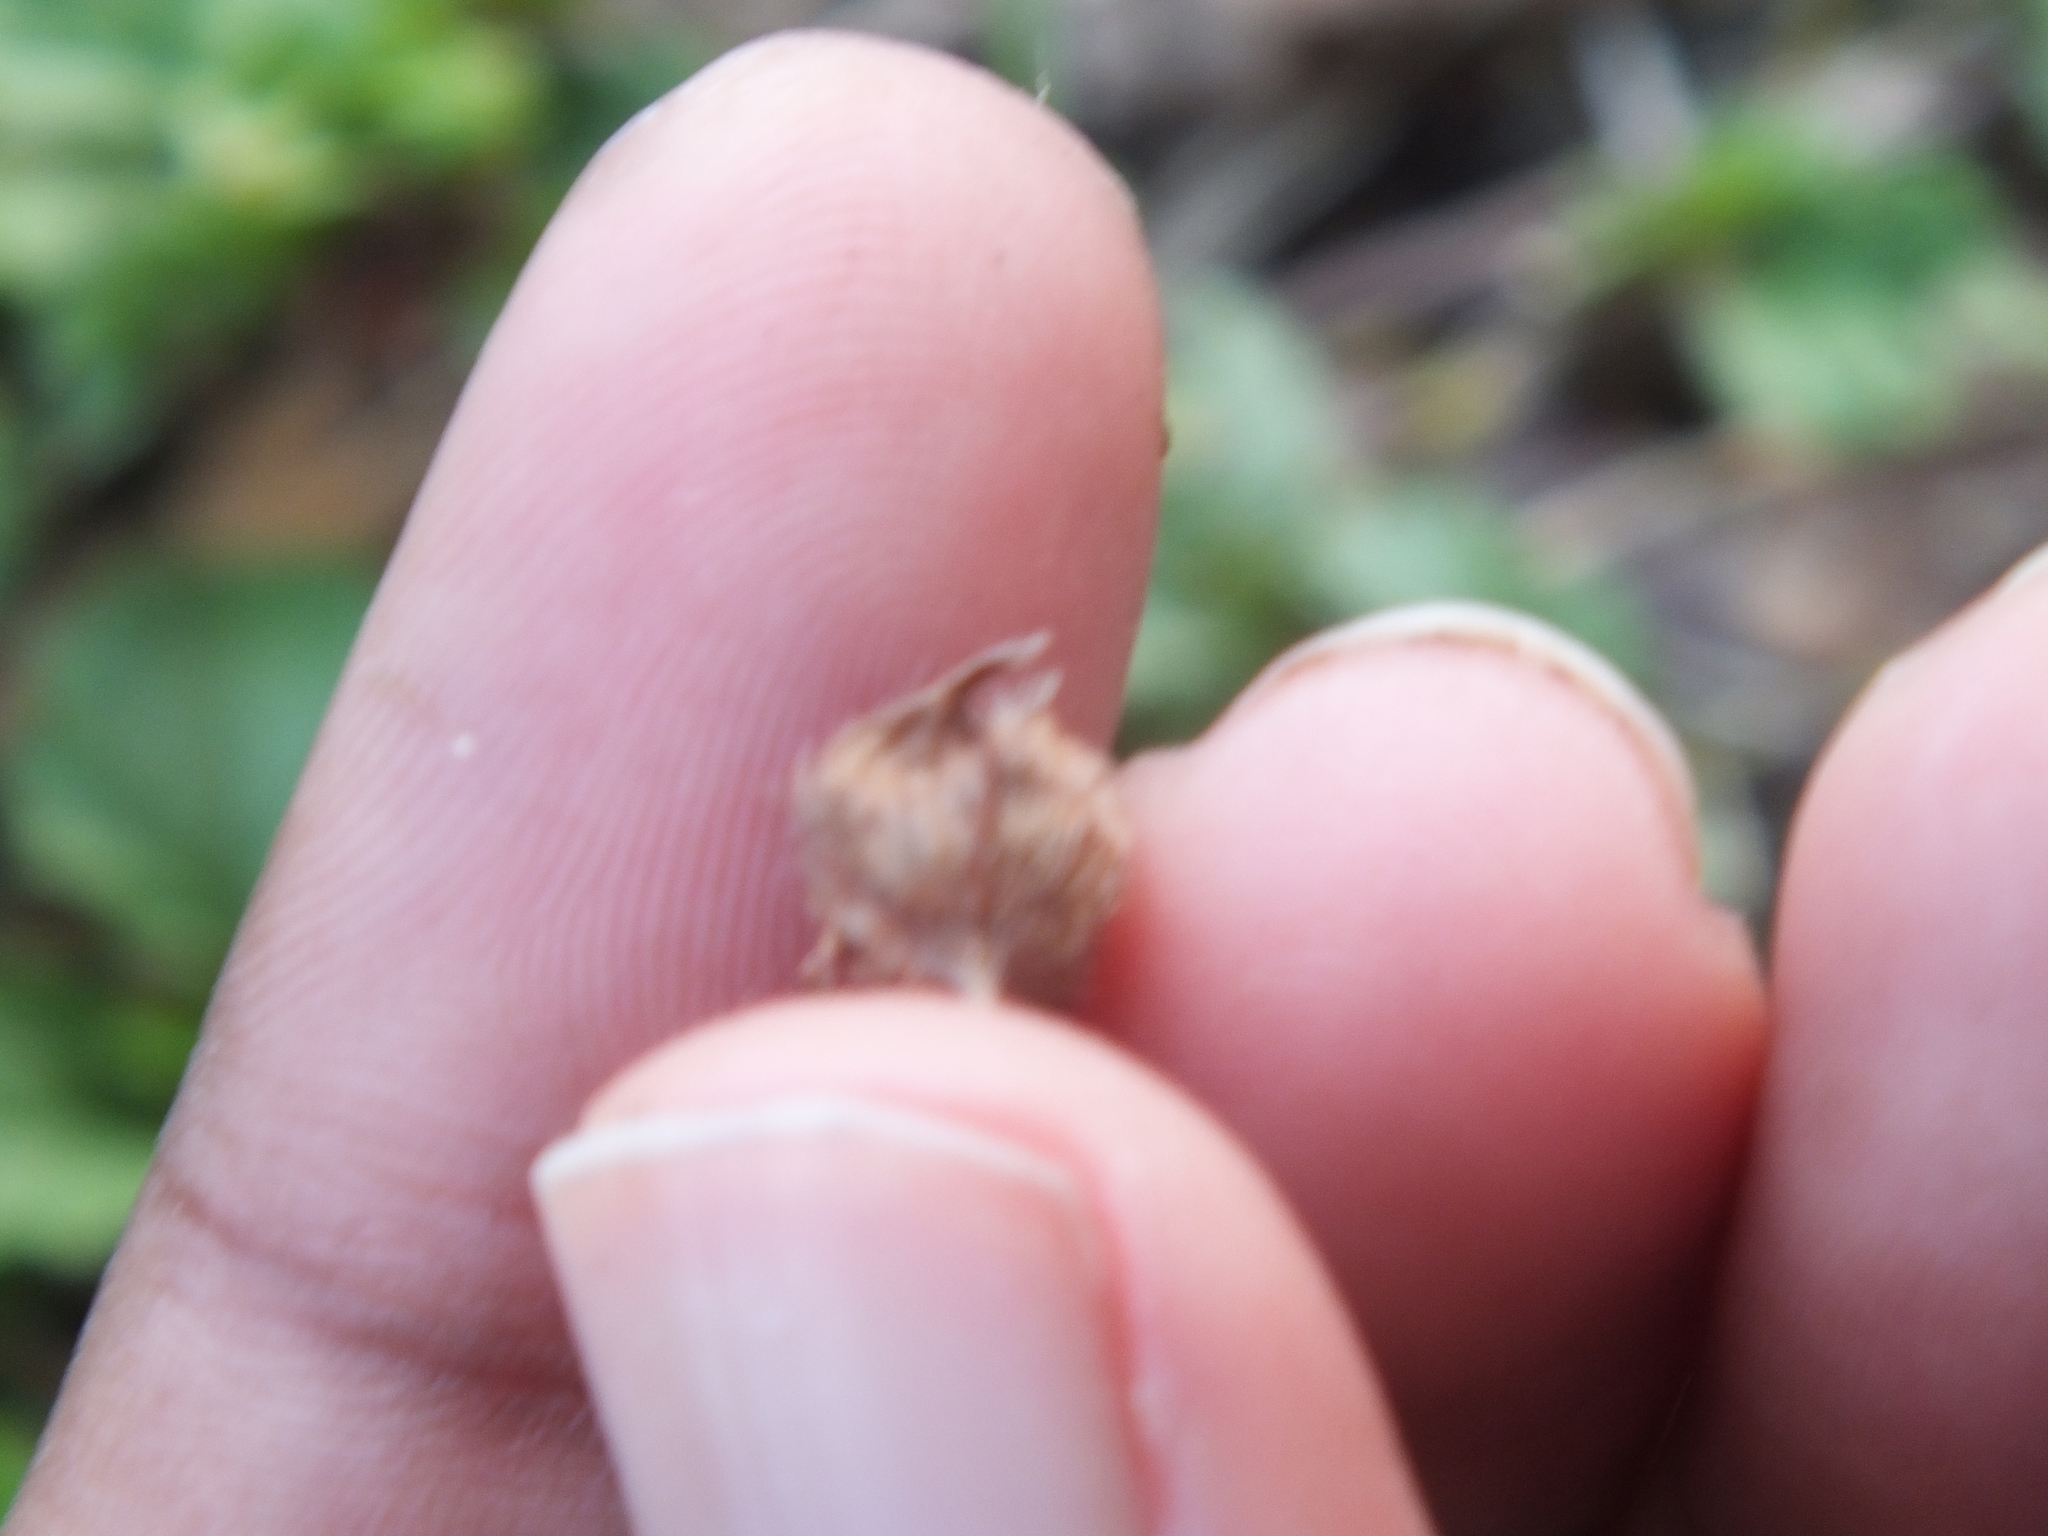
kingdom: Plantae
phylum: Tracheophyta
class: Magnoliopsida
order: Malvales
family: Malvaceae
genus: Malvastrum
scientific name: Malvastrum coromandelianum
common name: Threelobe false mallow
